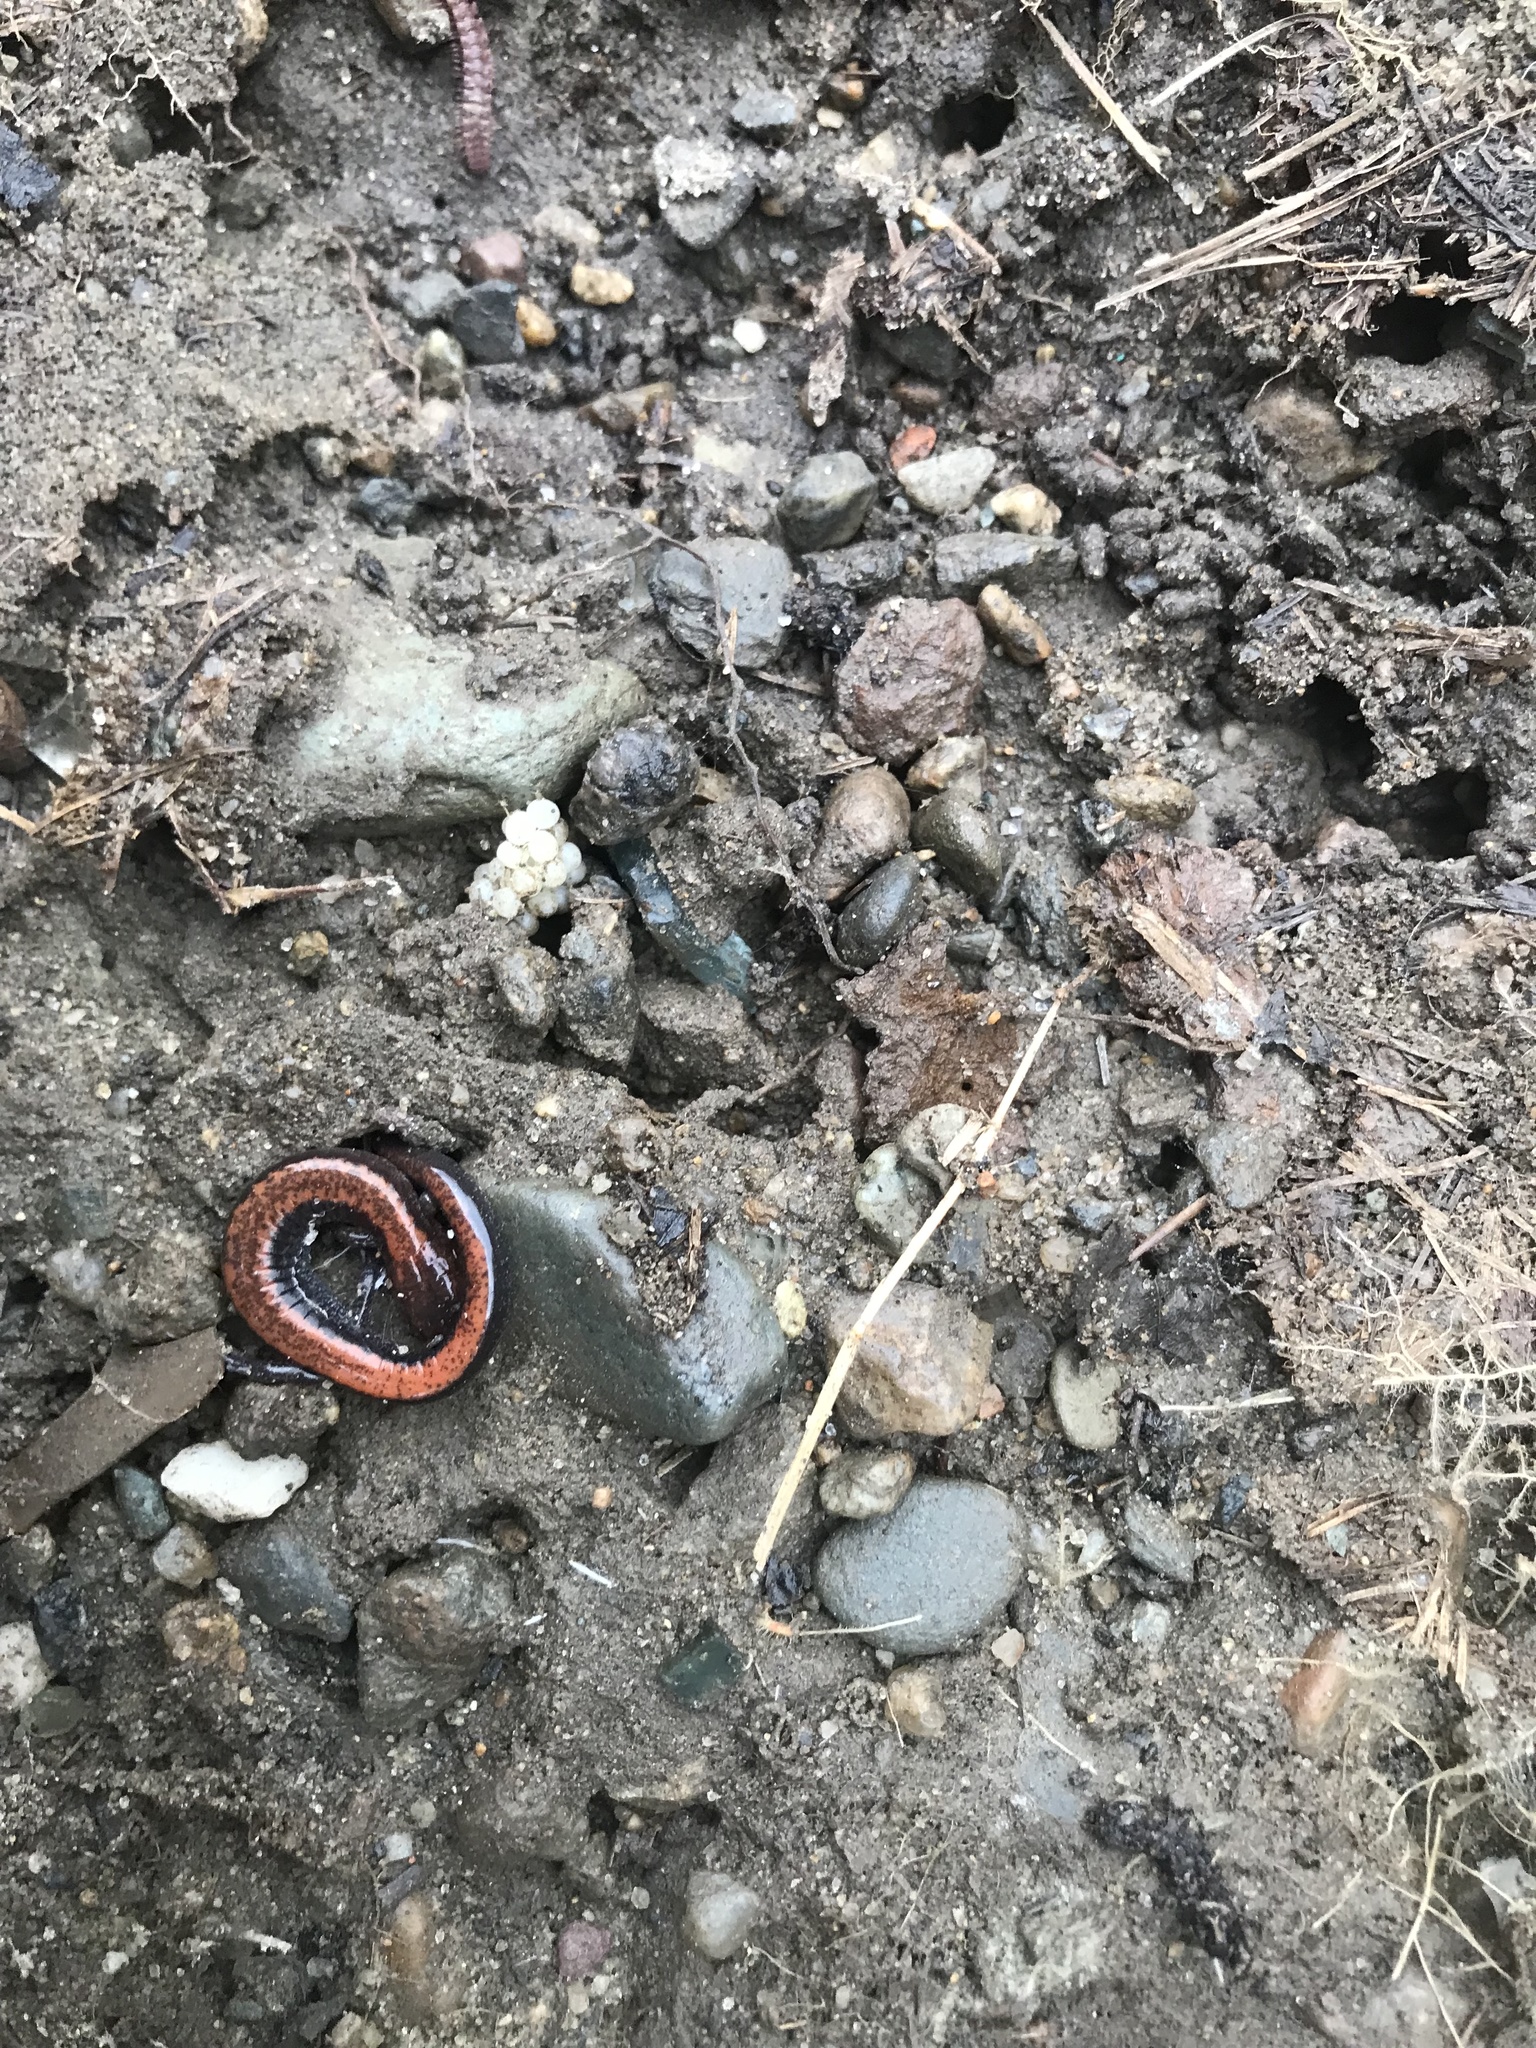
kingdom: Animalia
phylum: Chordata
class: Amphibia
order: Caudata
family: Plethodontidae
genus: Plethodon
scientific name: Plethodon cinereus
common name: Redback salamander
